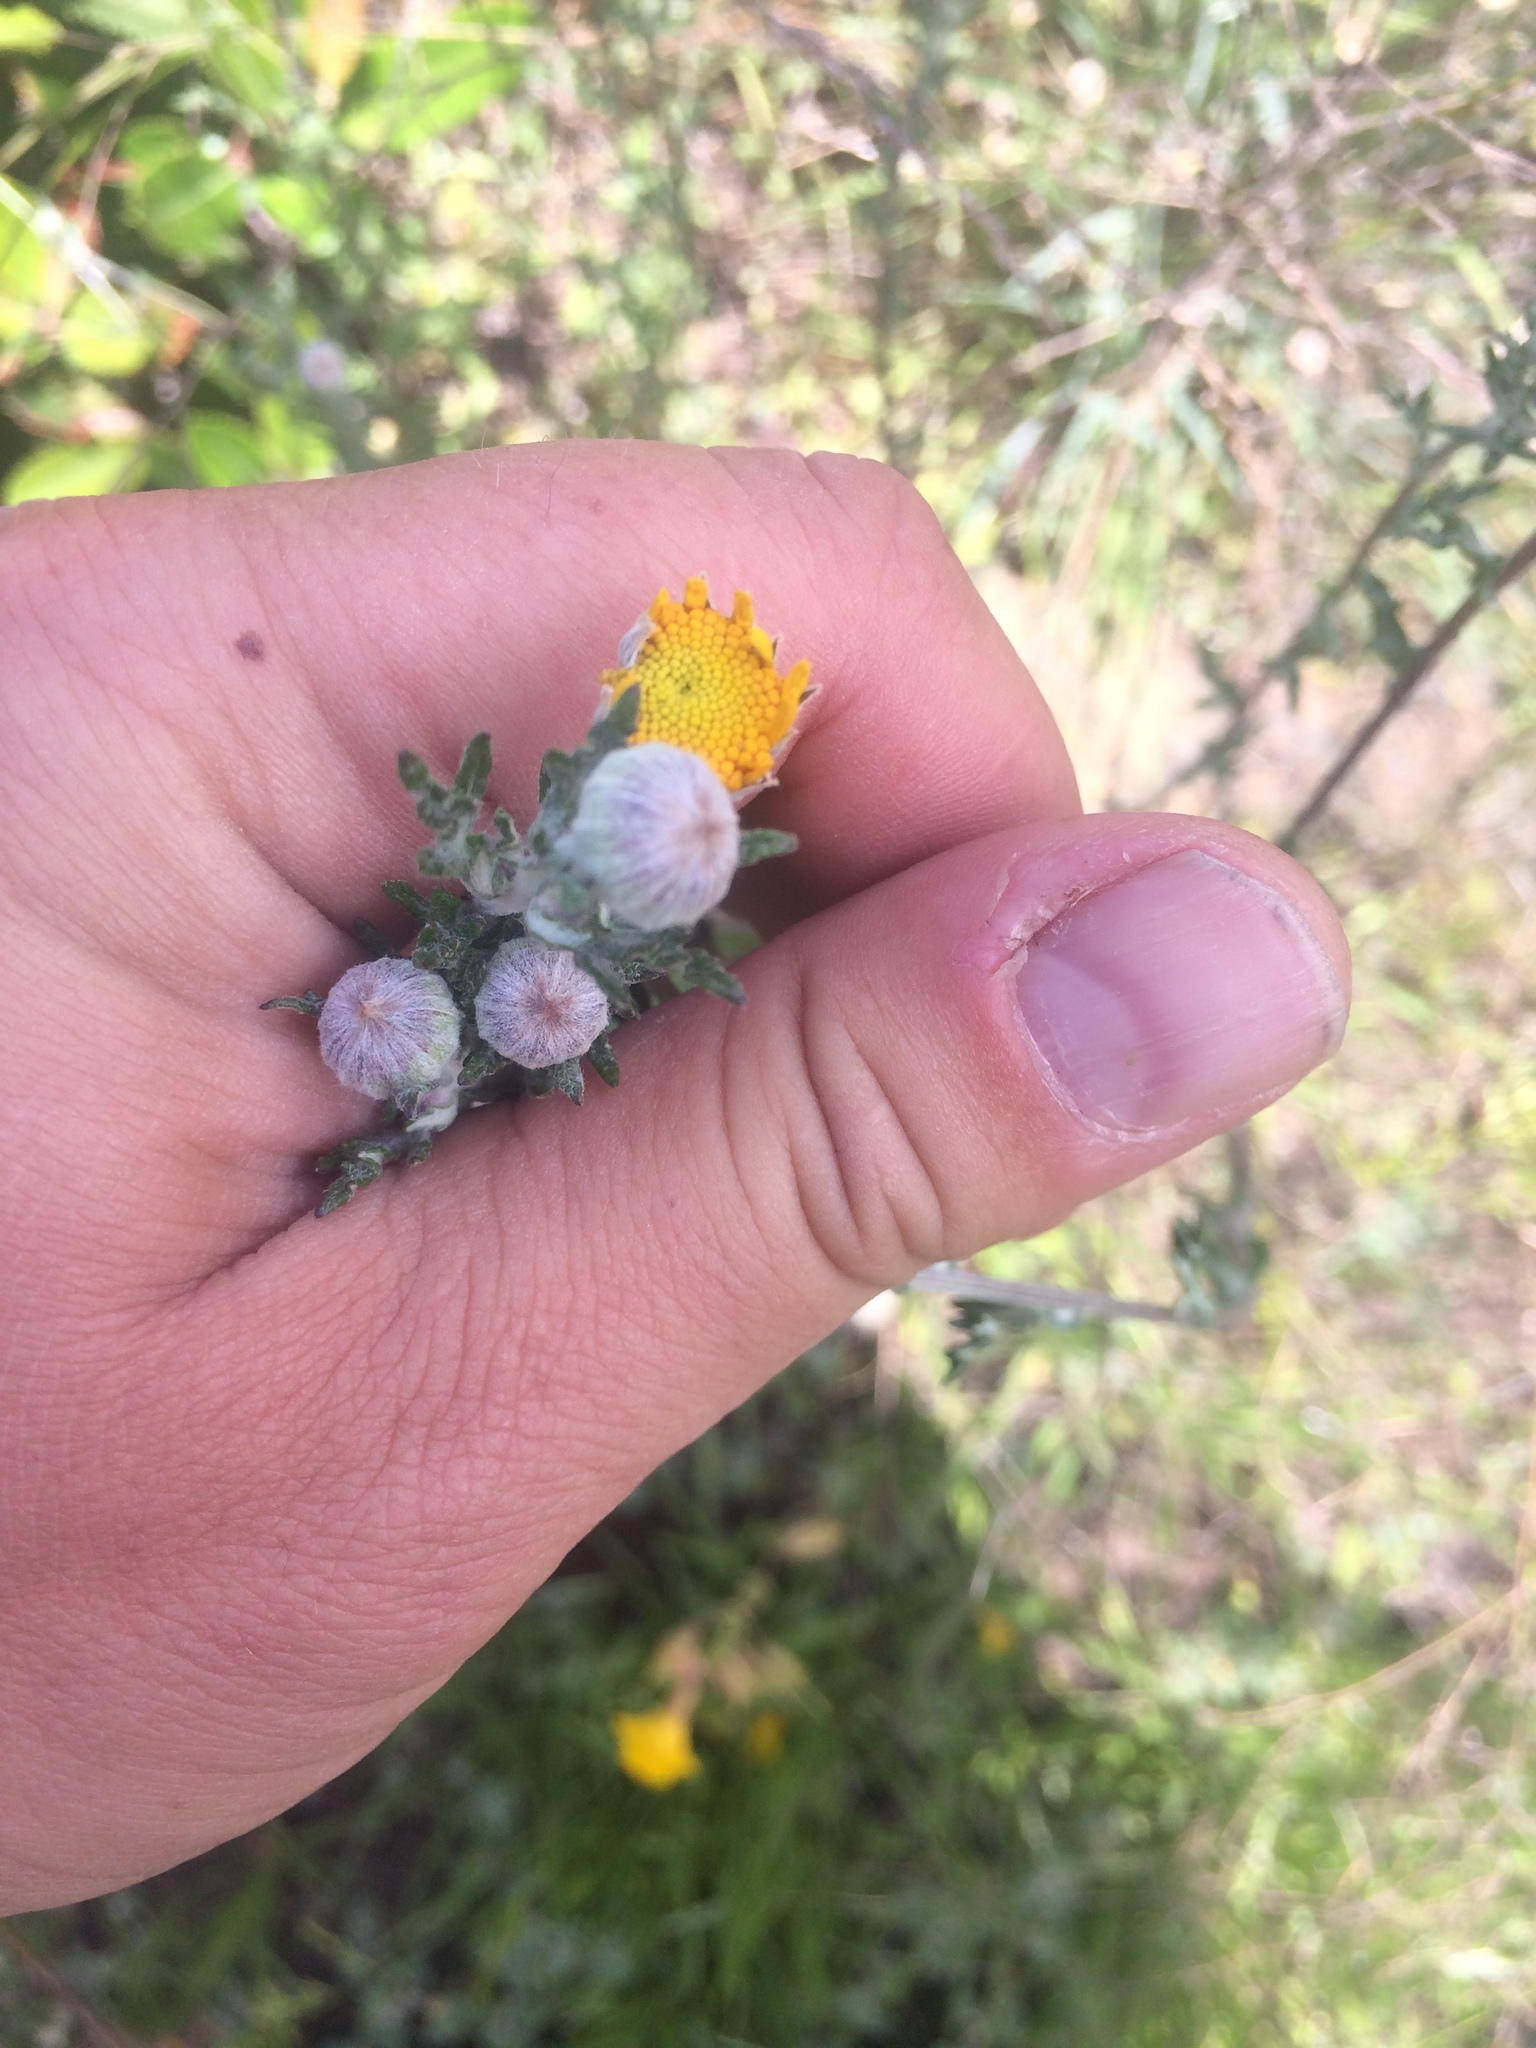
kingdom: Plantae
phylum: Tracheophyta
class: Magnoliopsida
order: Asterales
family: Asteraceae
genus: Eriophyllum
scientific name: Eriophyllum lanatum
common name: Common woolly-sunflower
